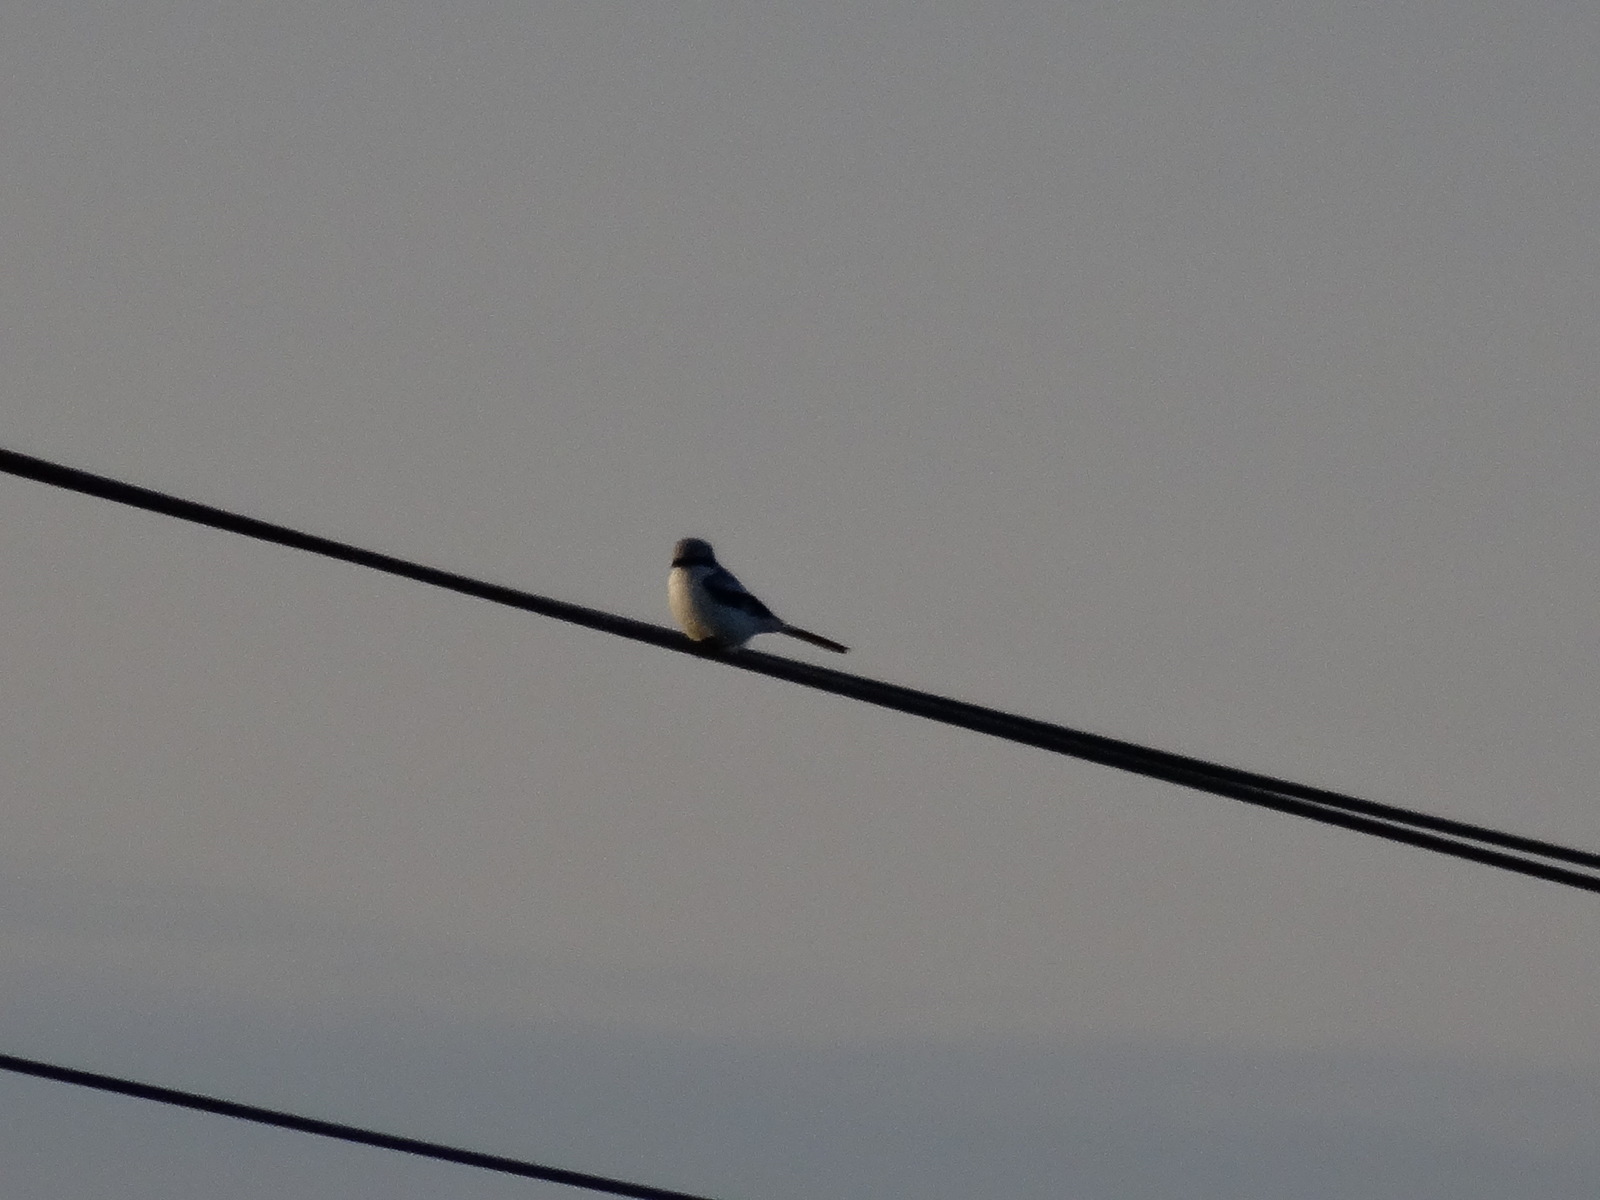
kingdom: Animalia
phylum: Chordata
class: Aves
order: Passeriformes
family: Laniidae
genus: Lanius
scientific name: Lanius excubitor
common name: Great grey shrike
